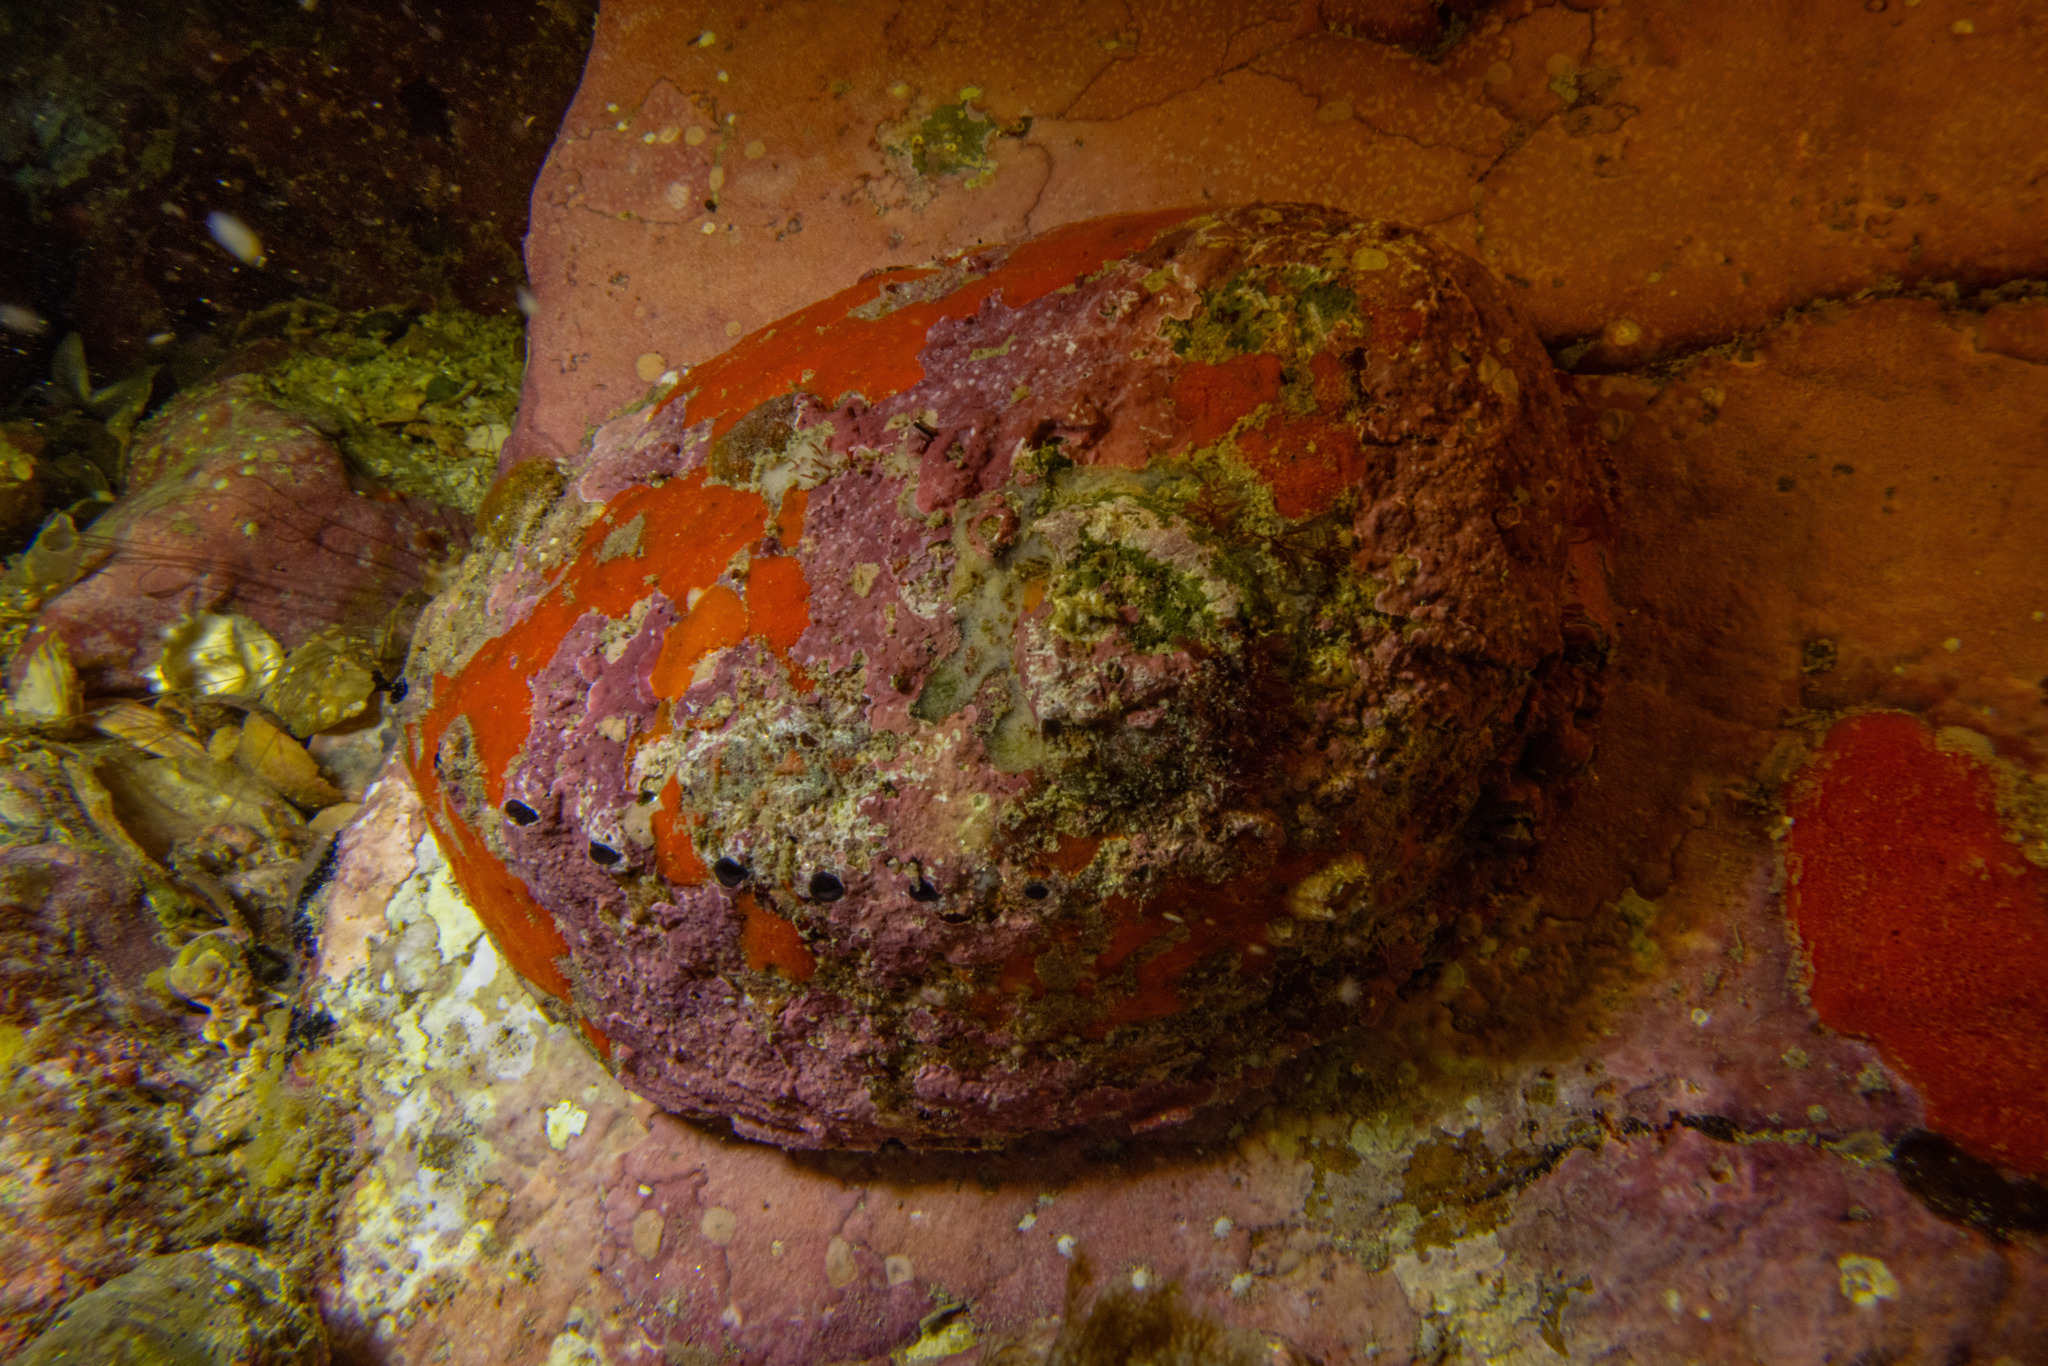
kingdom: Animalia
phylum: Mollusca
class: Gastropoda
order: Lepetellida
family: Haliotidae
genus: Haliotis
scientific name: Haliotis iris
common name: Abalone
